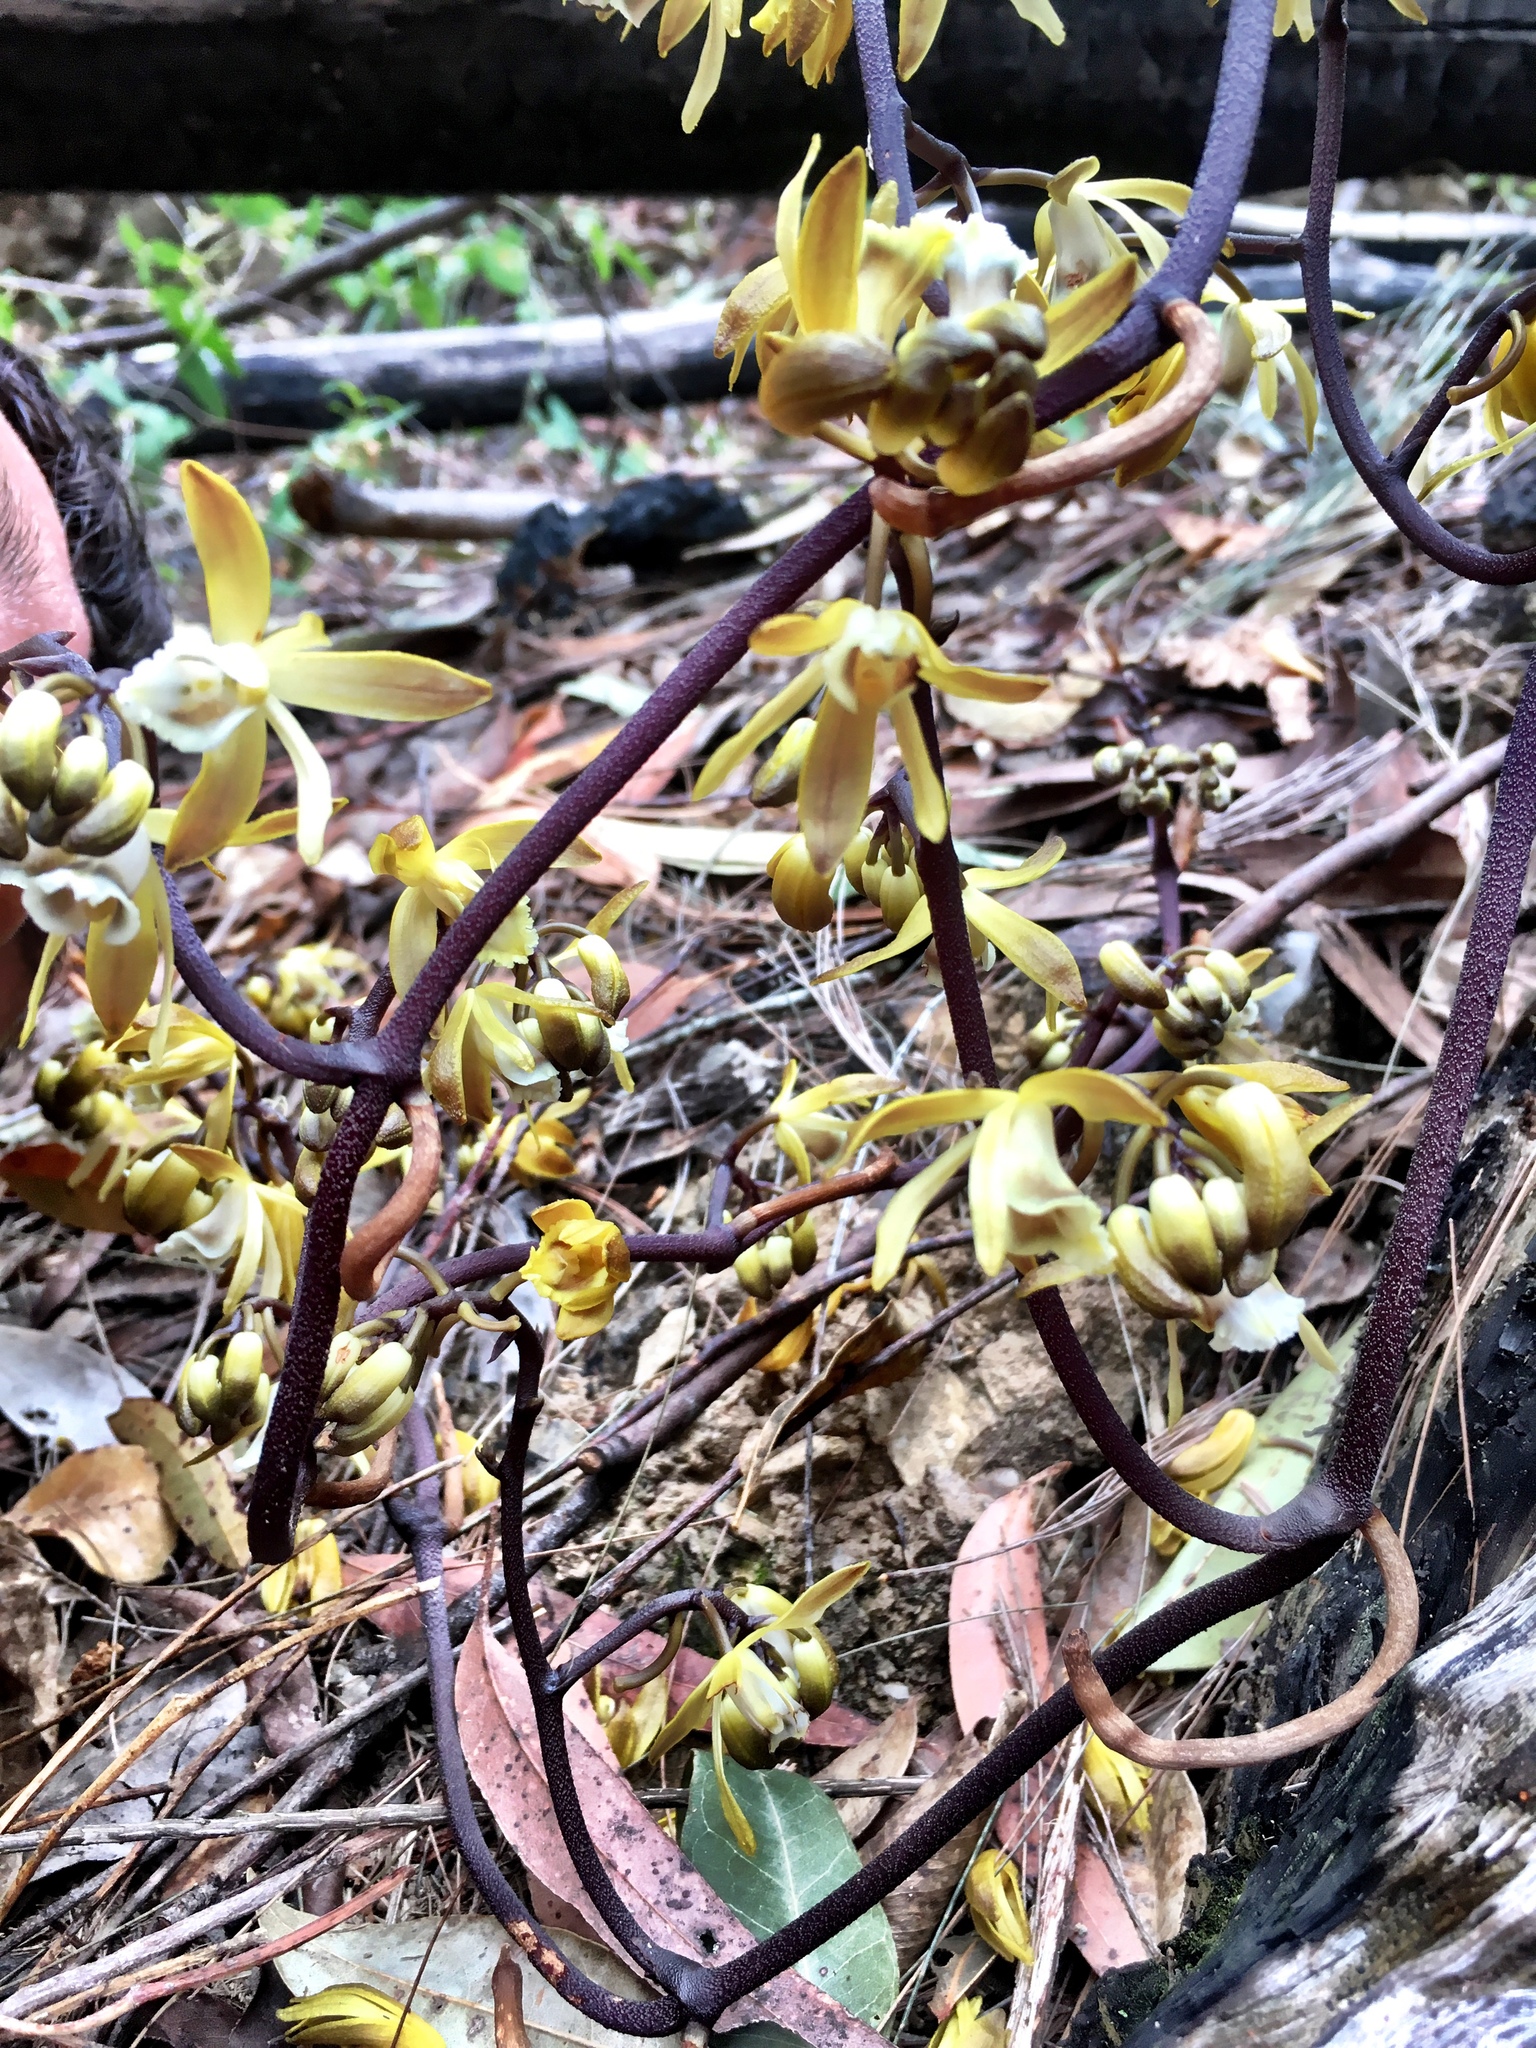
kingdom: Plantae
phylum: Tracheophyta
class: Liliopsida
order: Asparagales
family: Orchidaceae
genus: Erythrorchis
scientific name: Erythrorchis cassythoides
